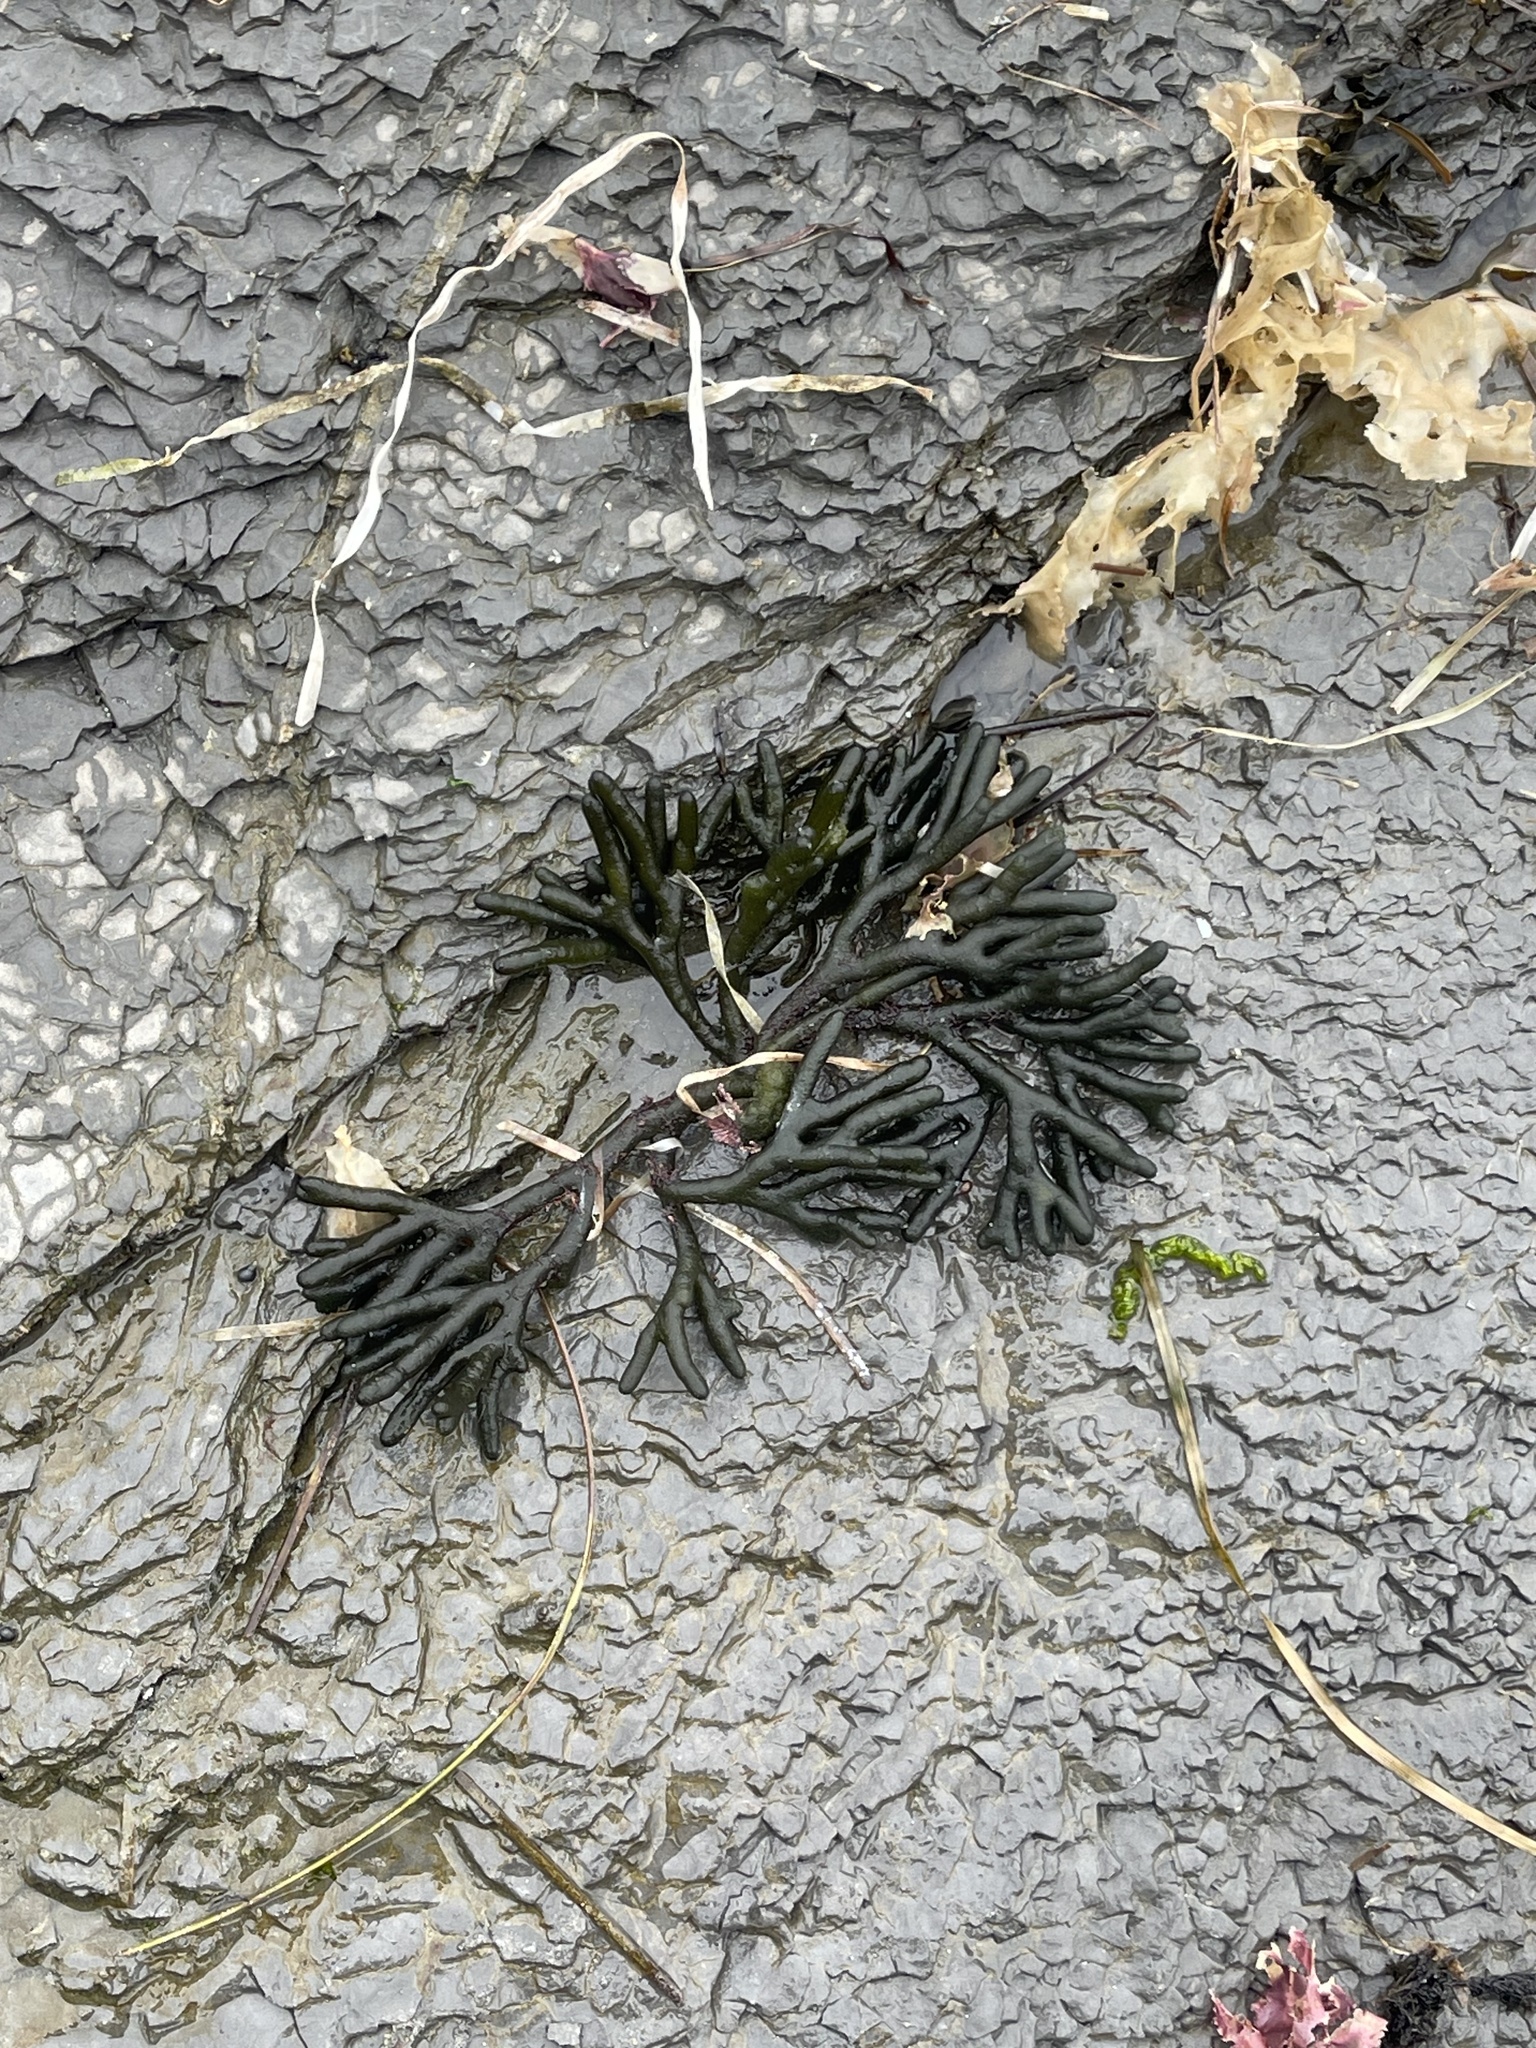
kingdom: Plantae
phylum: Chlorophyta
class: Ulvophyceae
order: Bryopsidales
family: Codiaceae
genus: Codium
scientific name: Codium fragile
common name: Dead man's fingers
